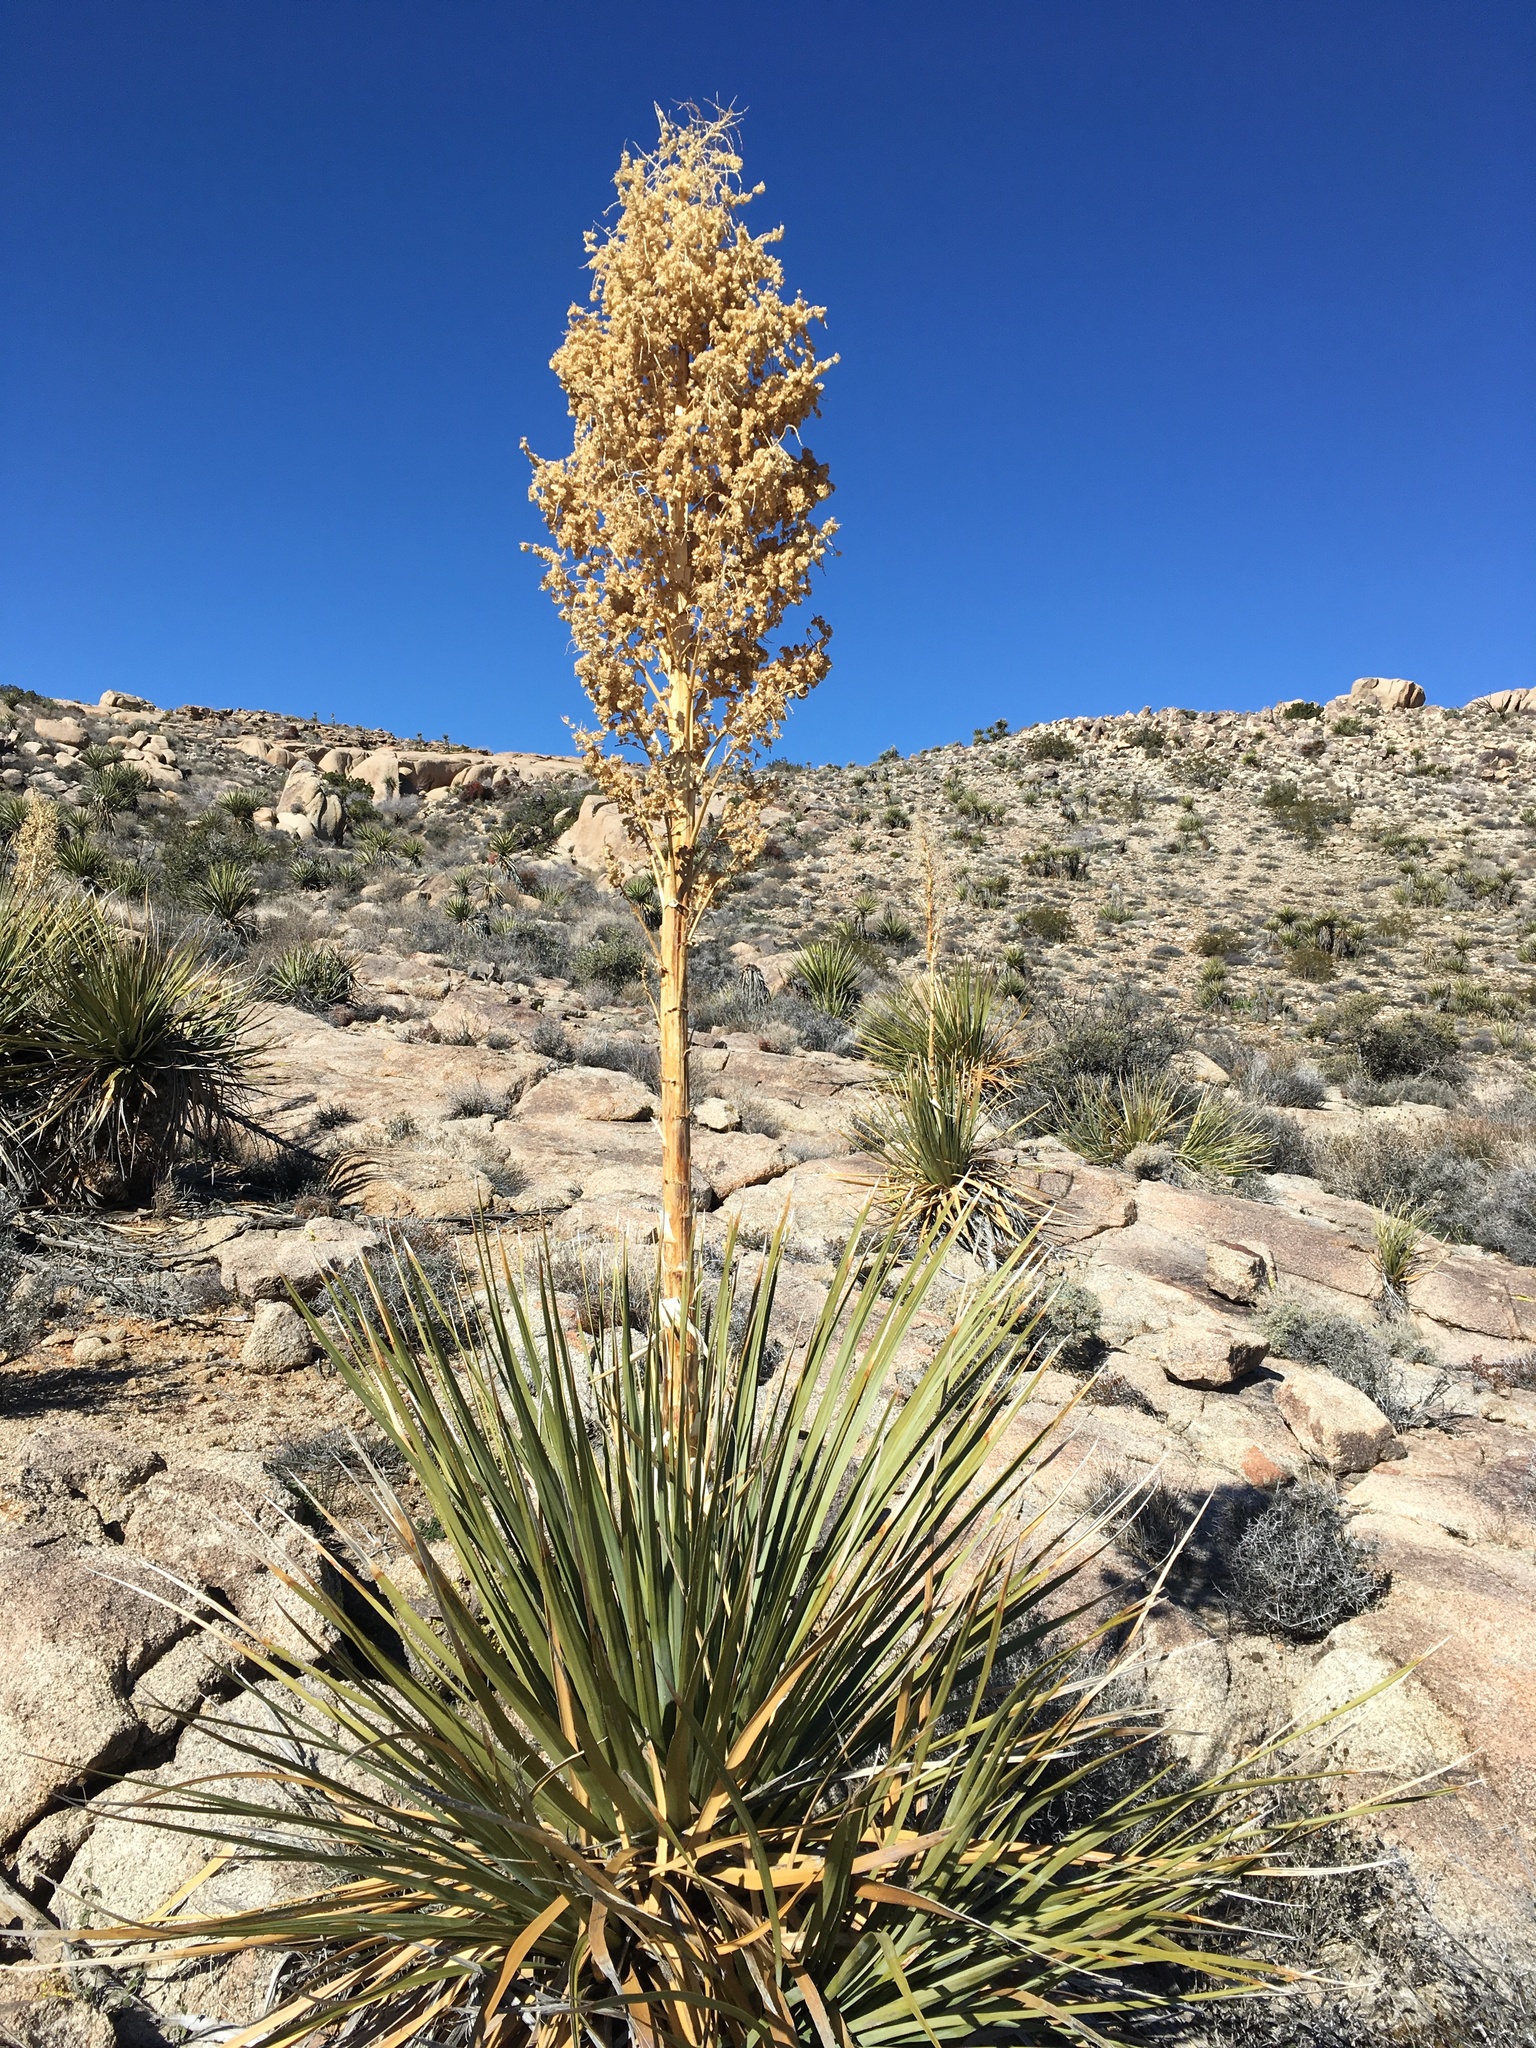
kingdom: Plantae
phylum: Tracheophyta
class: Liliopsida
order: Asparagales
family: Asparagaceae
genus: Nolina
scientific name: Nolina parryi
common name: Parry nolina
